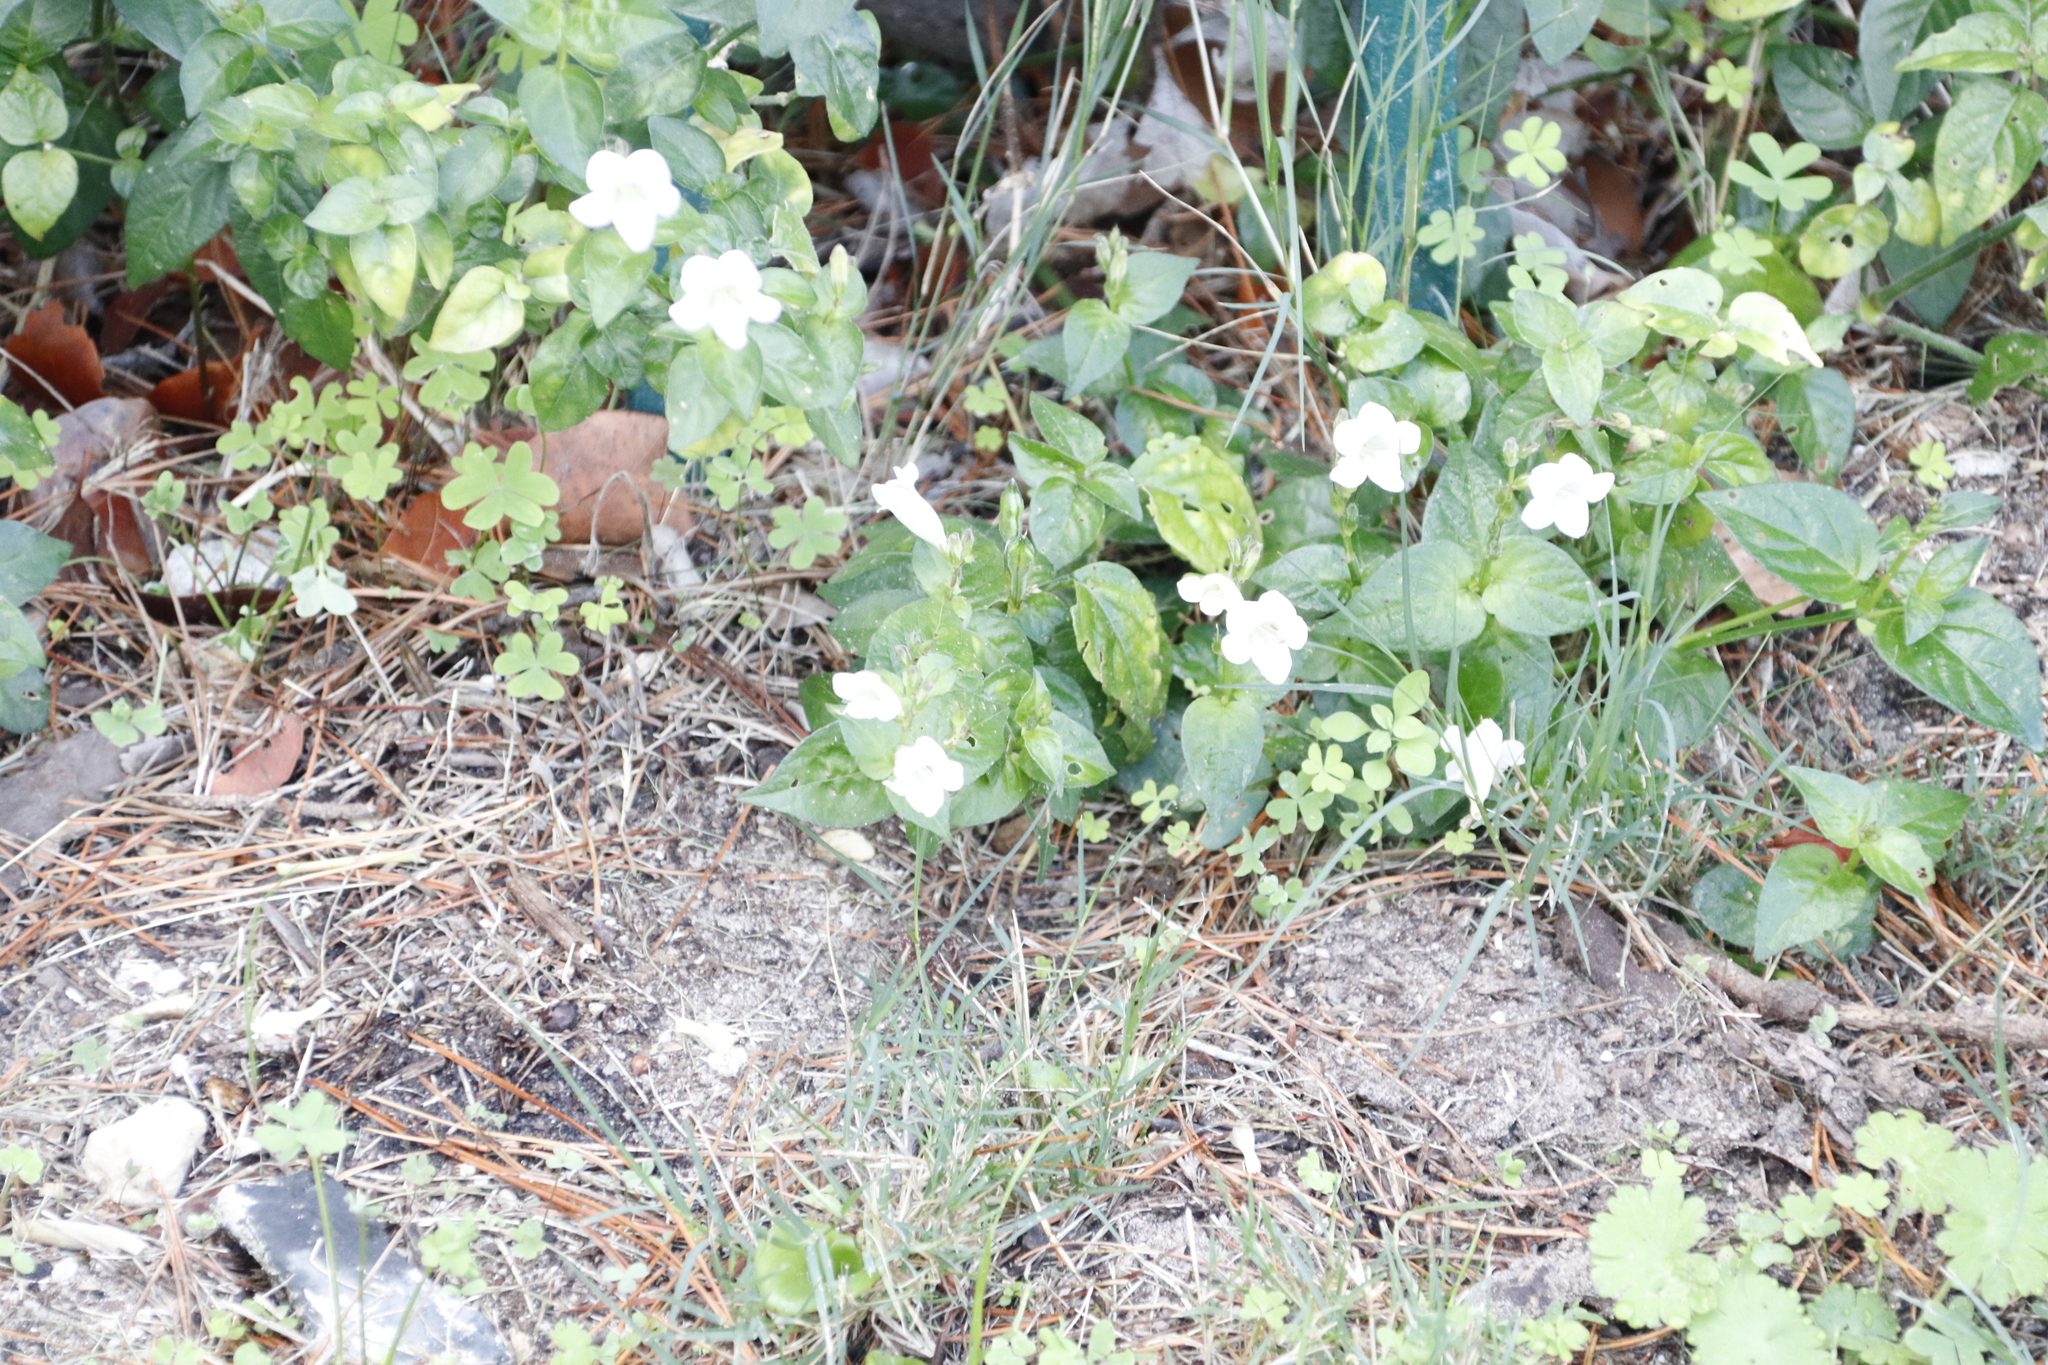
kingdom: Plantae
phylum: Tracheophyta
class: Magnoliopsida
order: Lamiales
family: Acanthaceae
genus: Asystasia
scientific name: Asystasia intrusa
